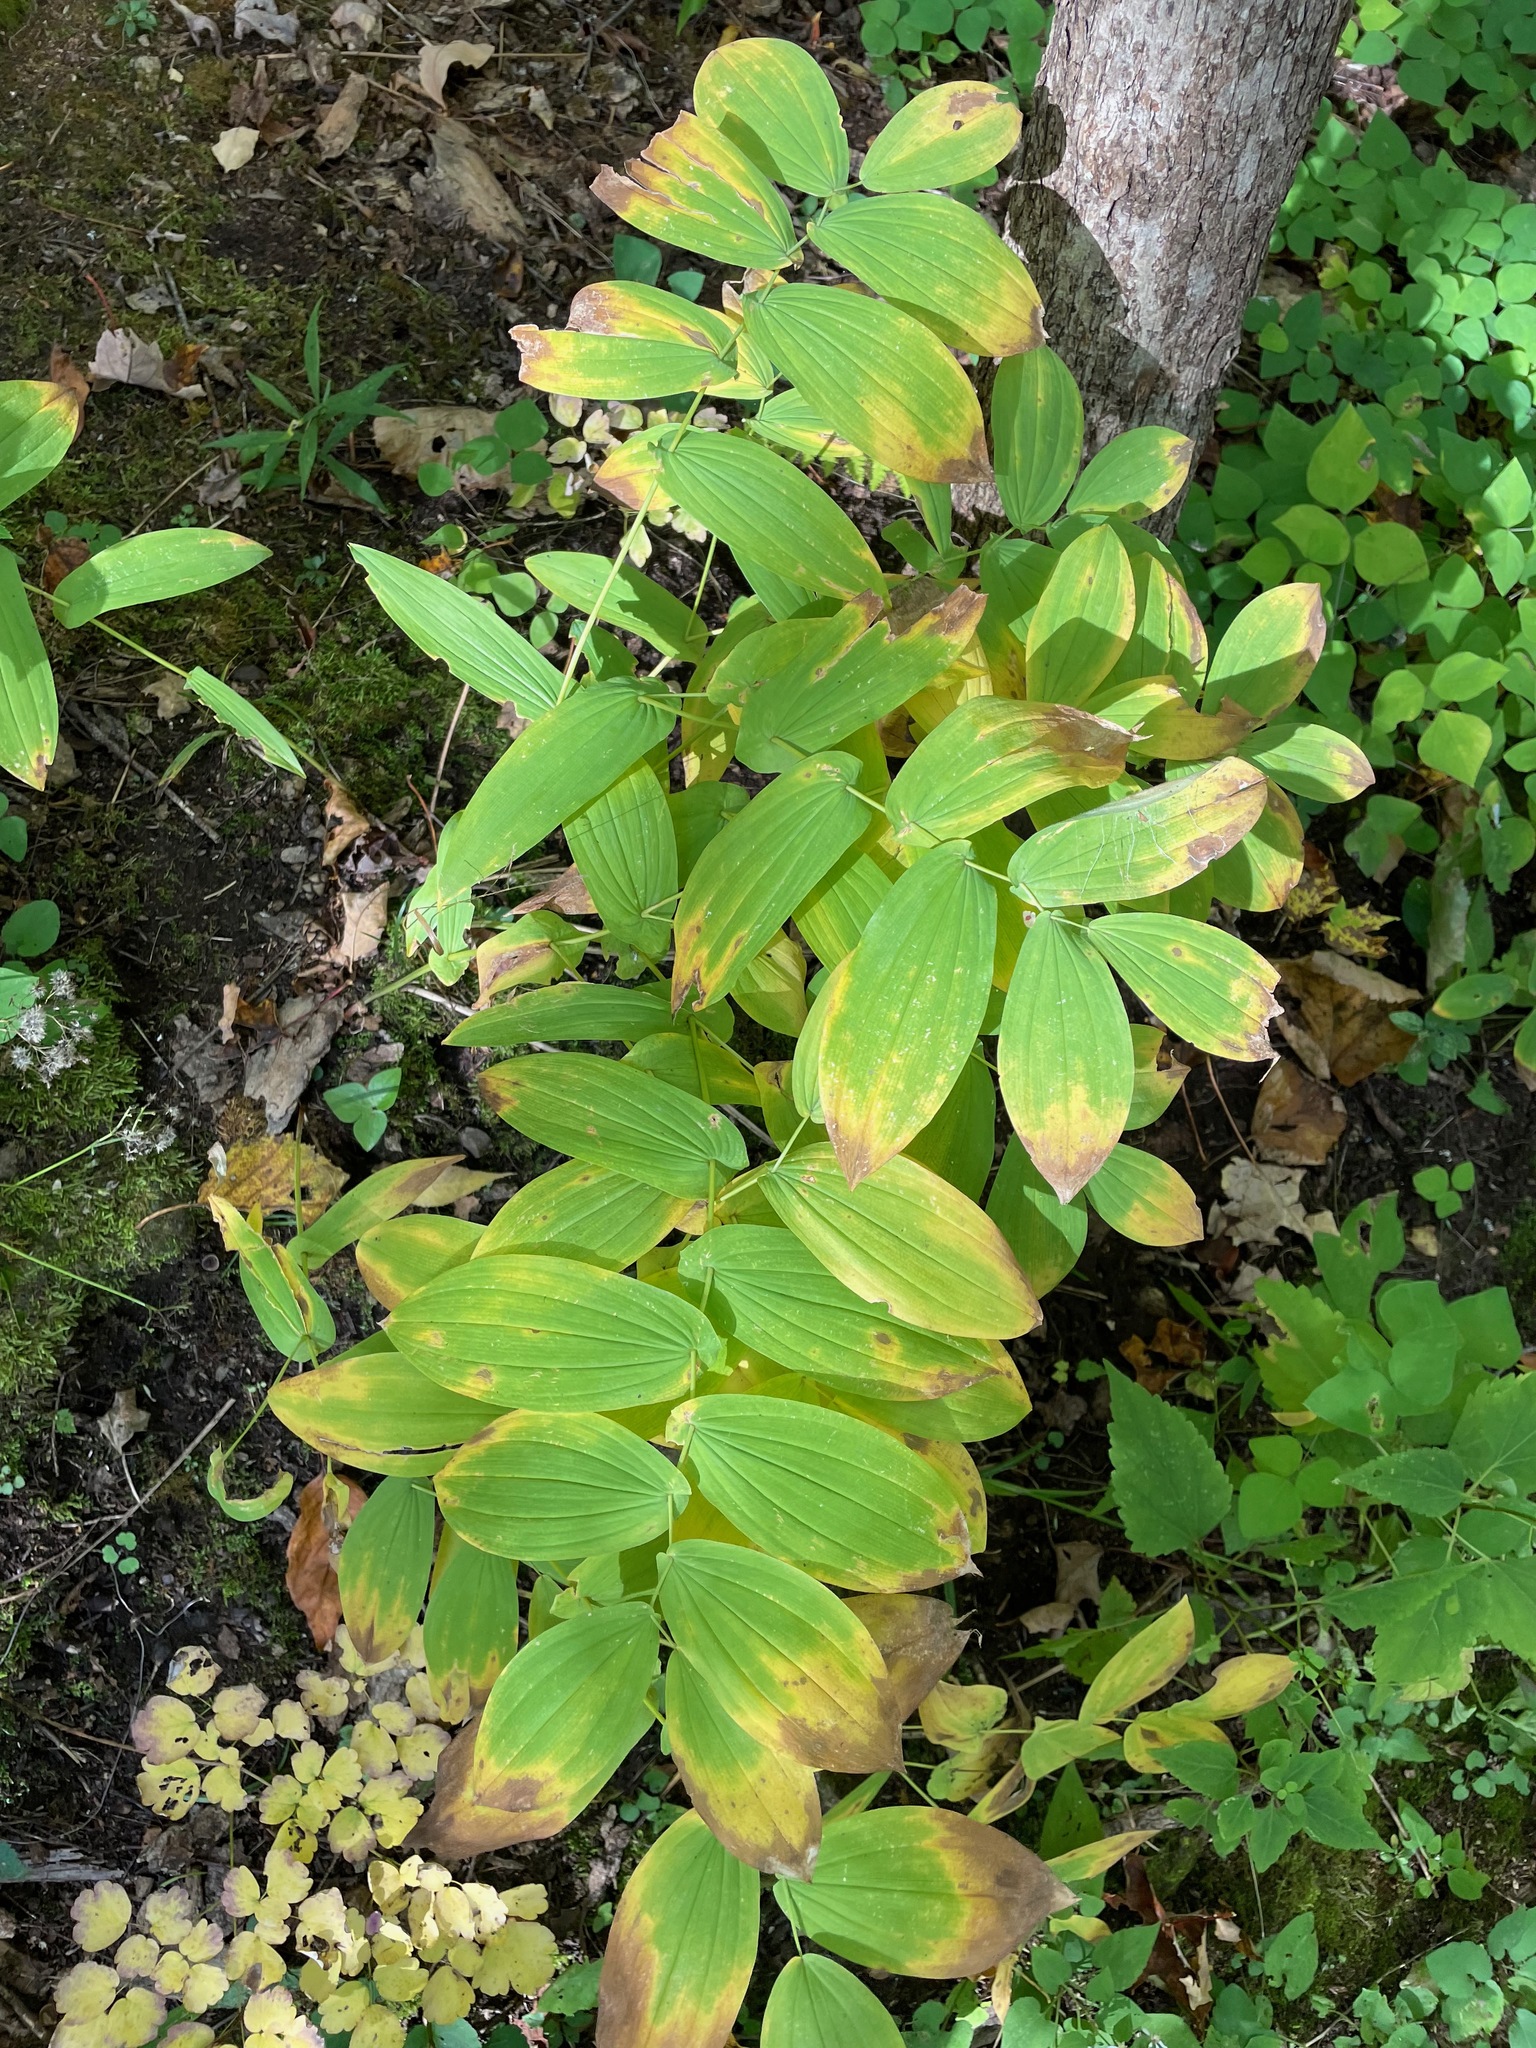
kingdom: Plantae
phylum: Tracheophyta
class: Liliopsida
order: Liliales
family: Colchicaceae
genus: Uvularia
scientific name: Uvularia grandiflora
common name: Bellwort
